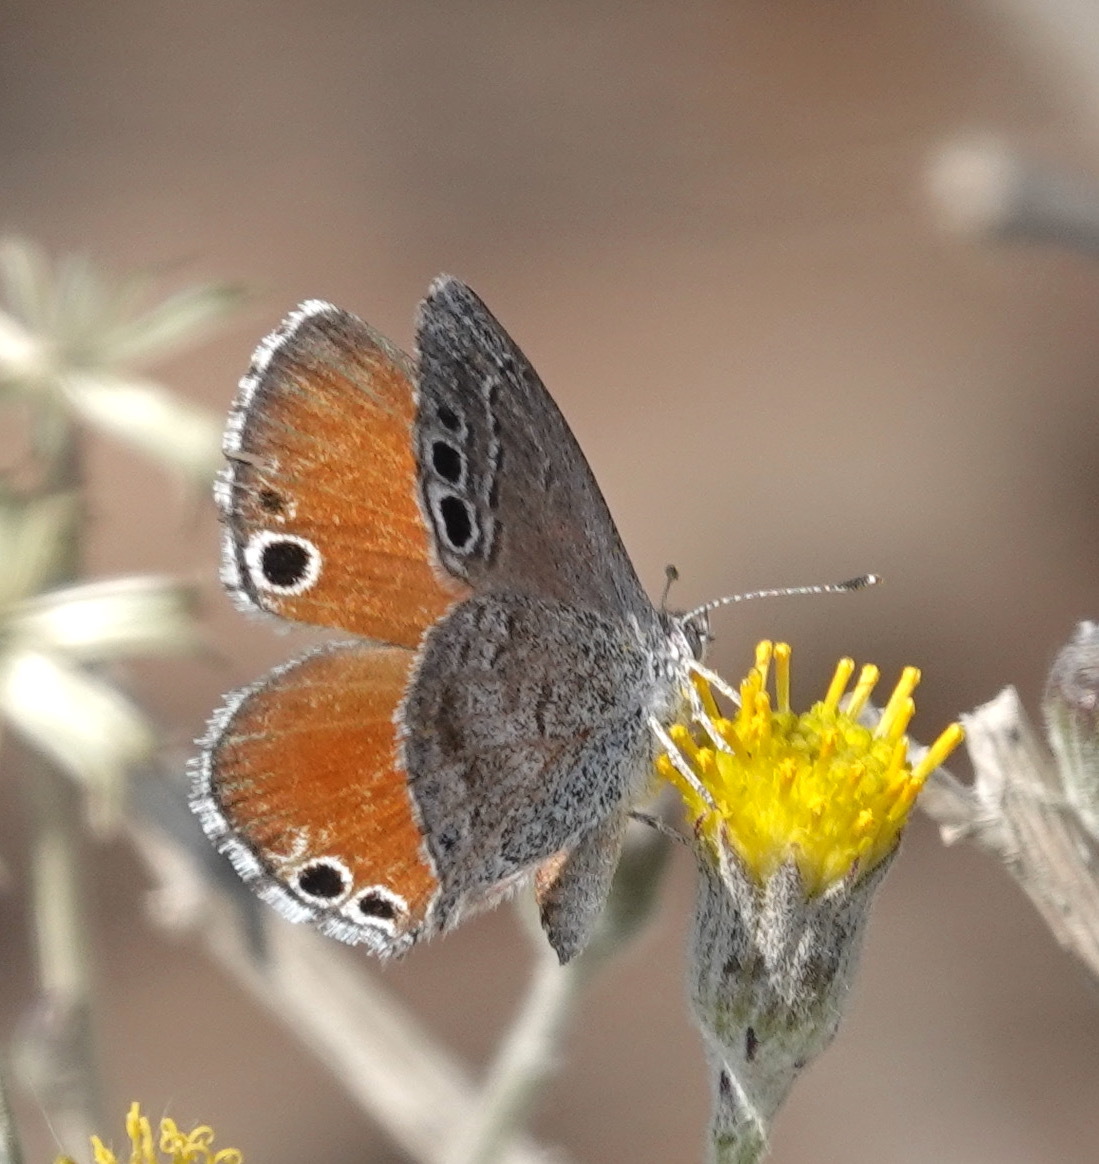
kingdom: Animalia
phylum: Arthropoda
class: Insecta
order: Lepidoptera
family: Lycaenidae
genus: Leptomyrina
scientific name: Leptomyrina lara
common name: Cape black-eye
